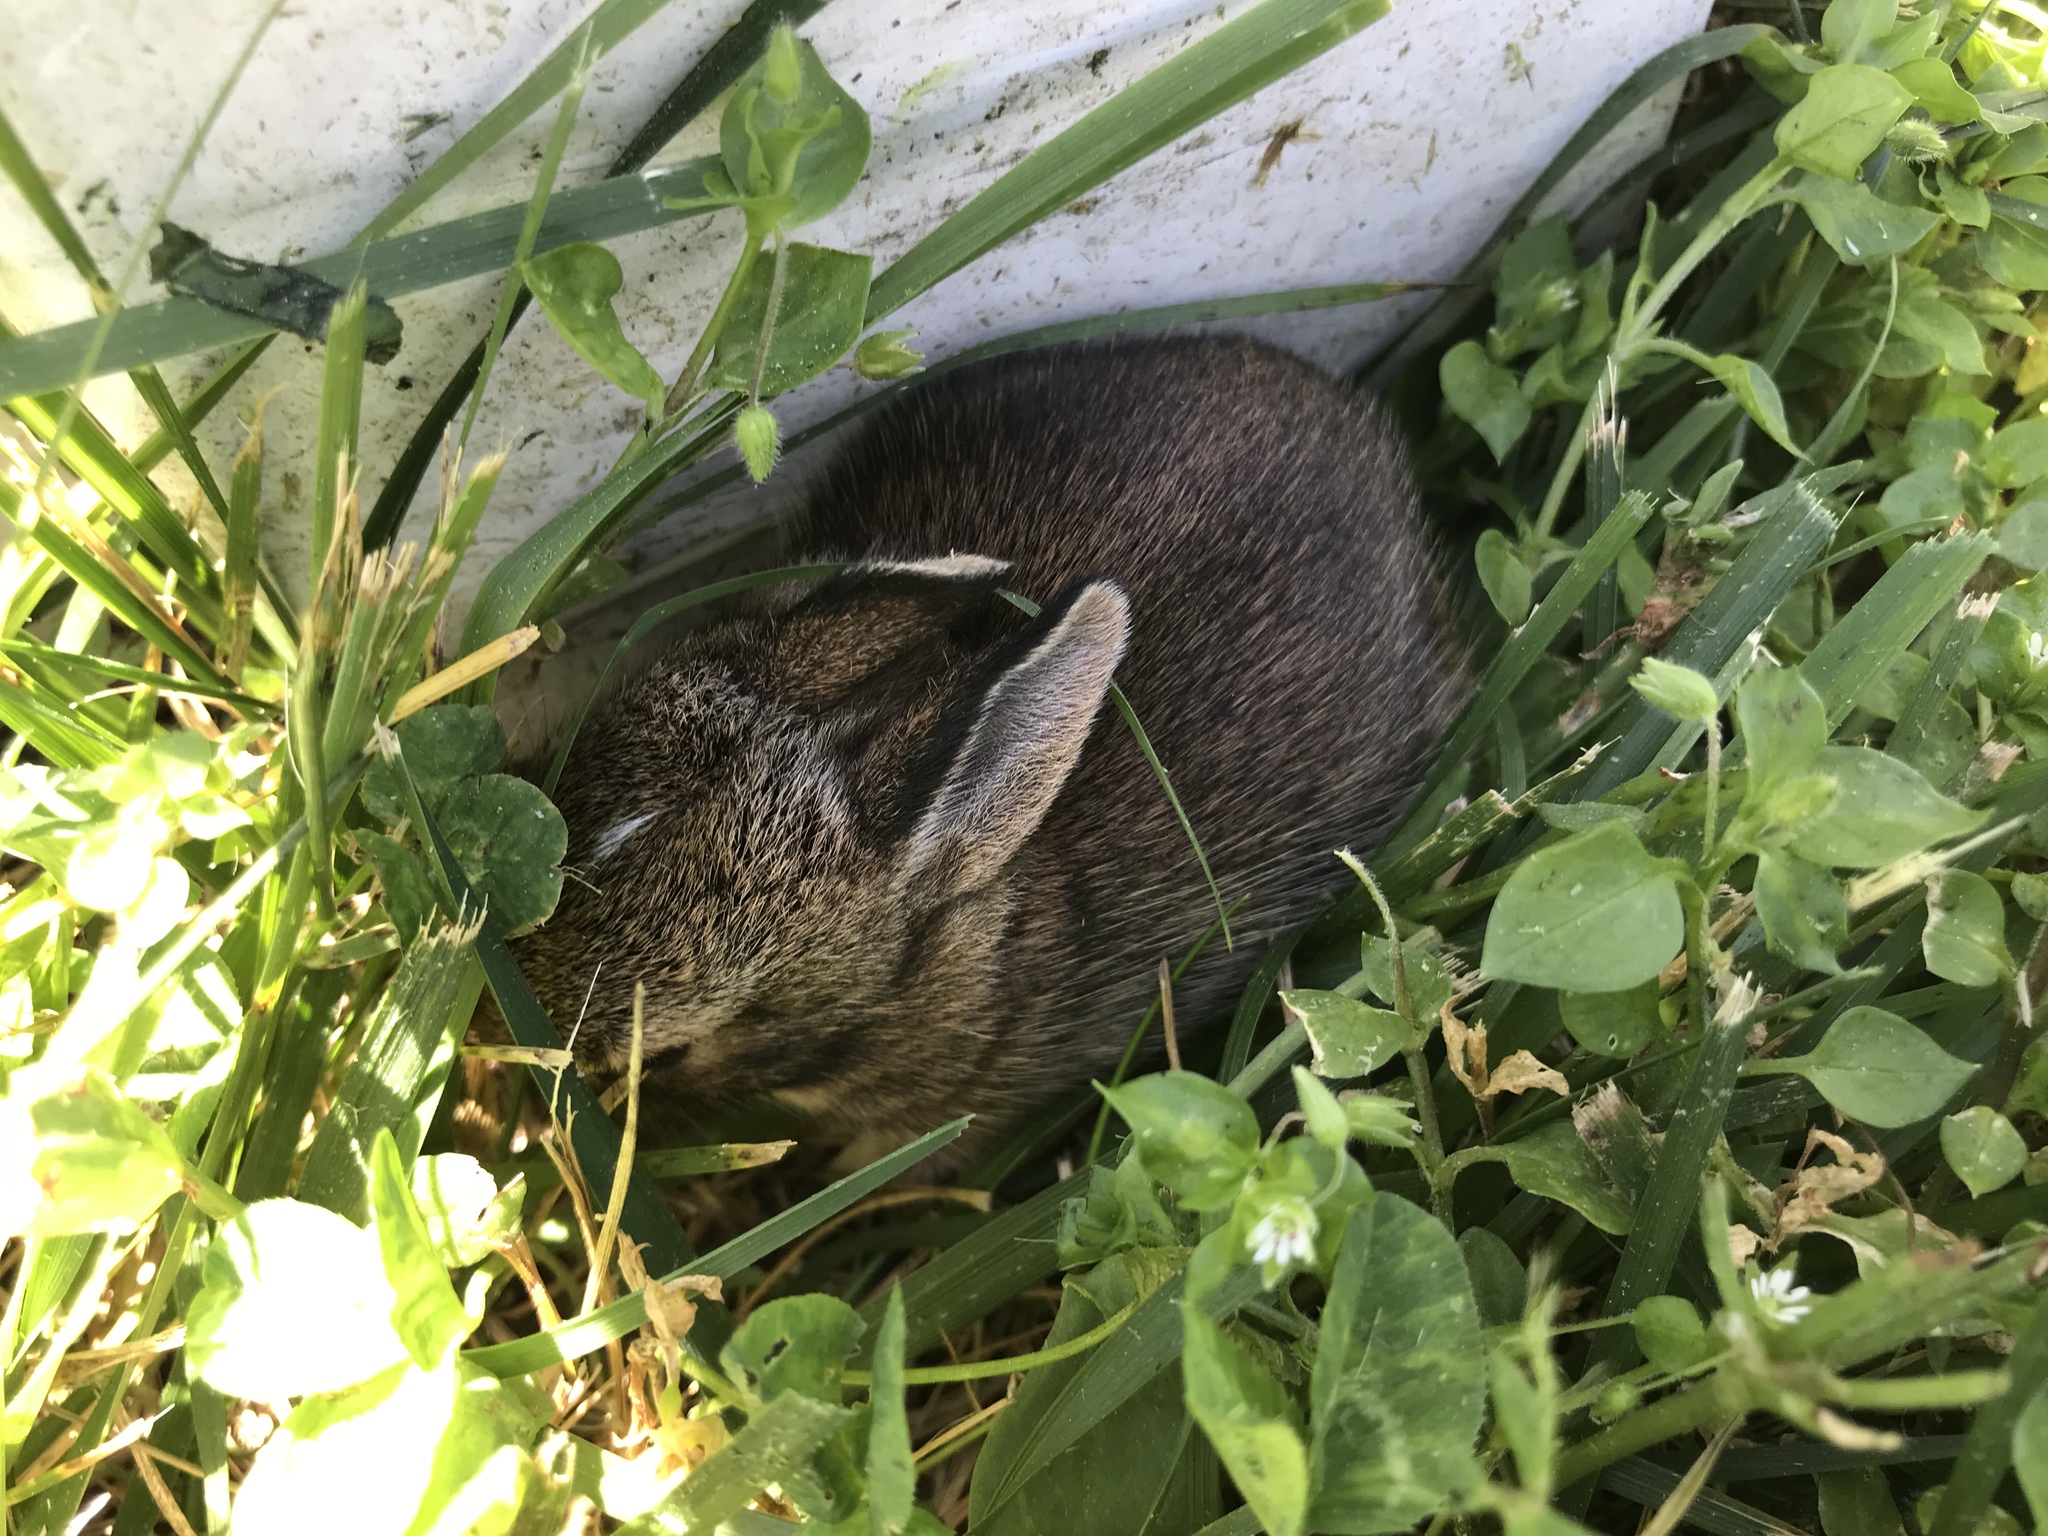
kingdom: Animalia
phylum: Chordata
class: Mammalia
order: Lagomorpha
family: Leporidae
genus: Sylvilagus
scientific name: Sylvilagus floridanus
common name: Eastern cottontail
